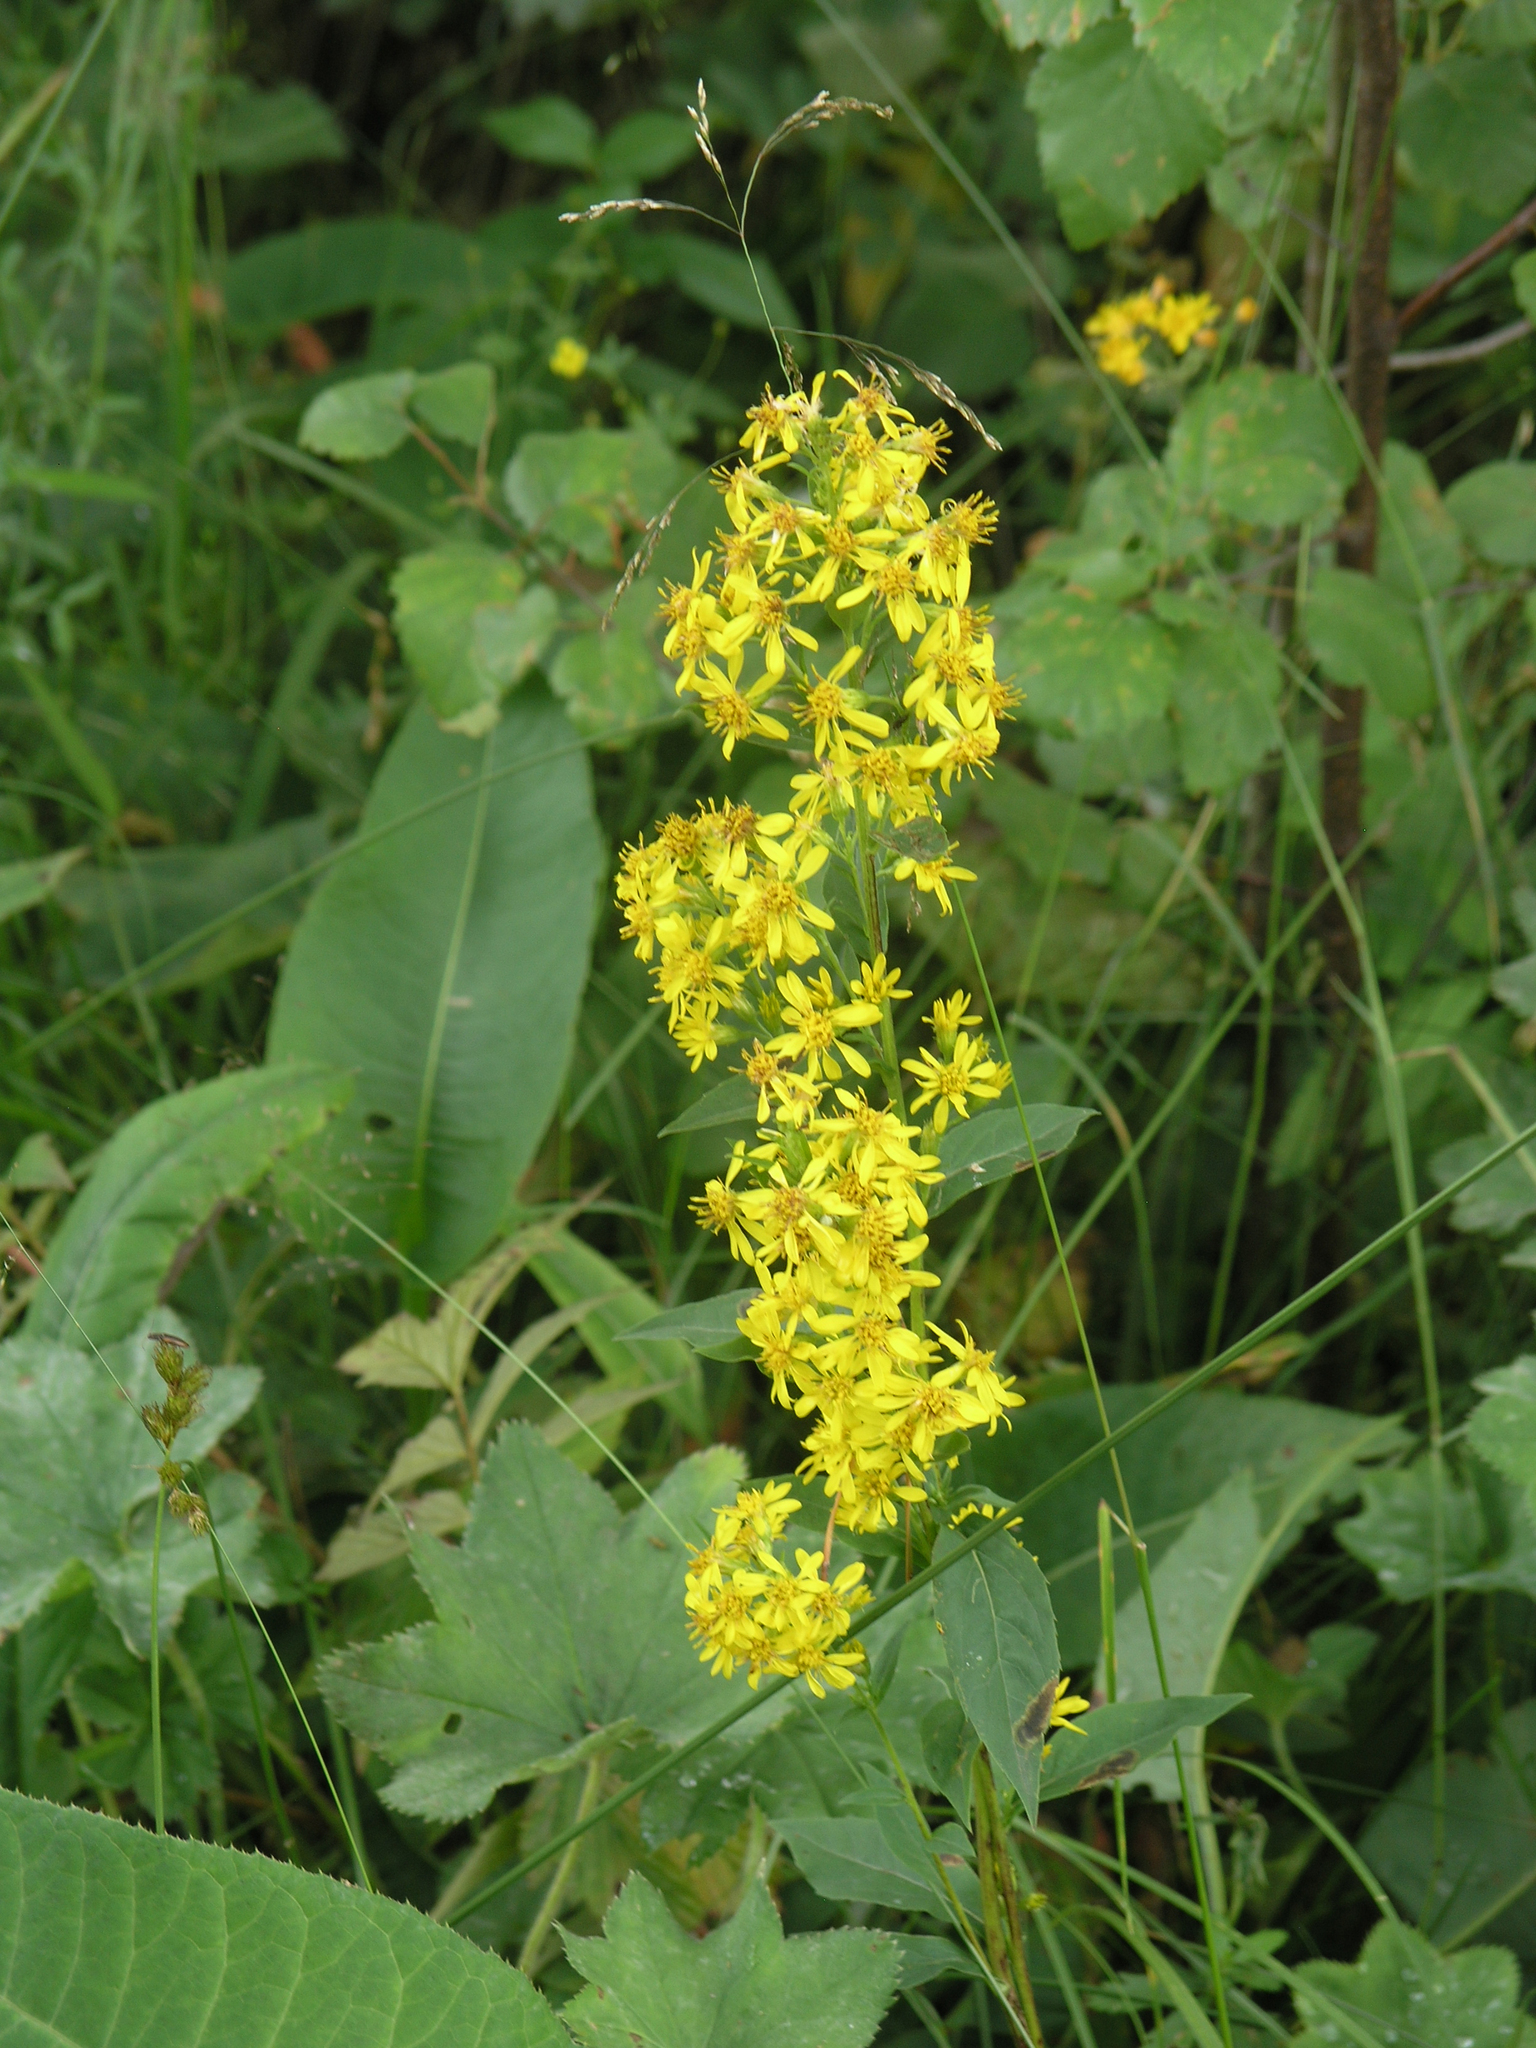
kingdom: Plantae
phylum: Tracheophyta
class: Magnoliopsida
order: Asterales
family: Asteraceae
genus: Solidago
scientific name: Solidago virgaurea
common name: Goldenrod
